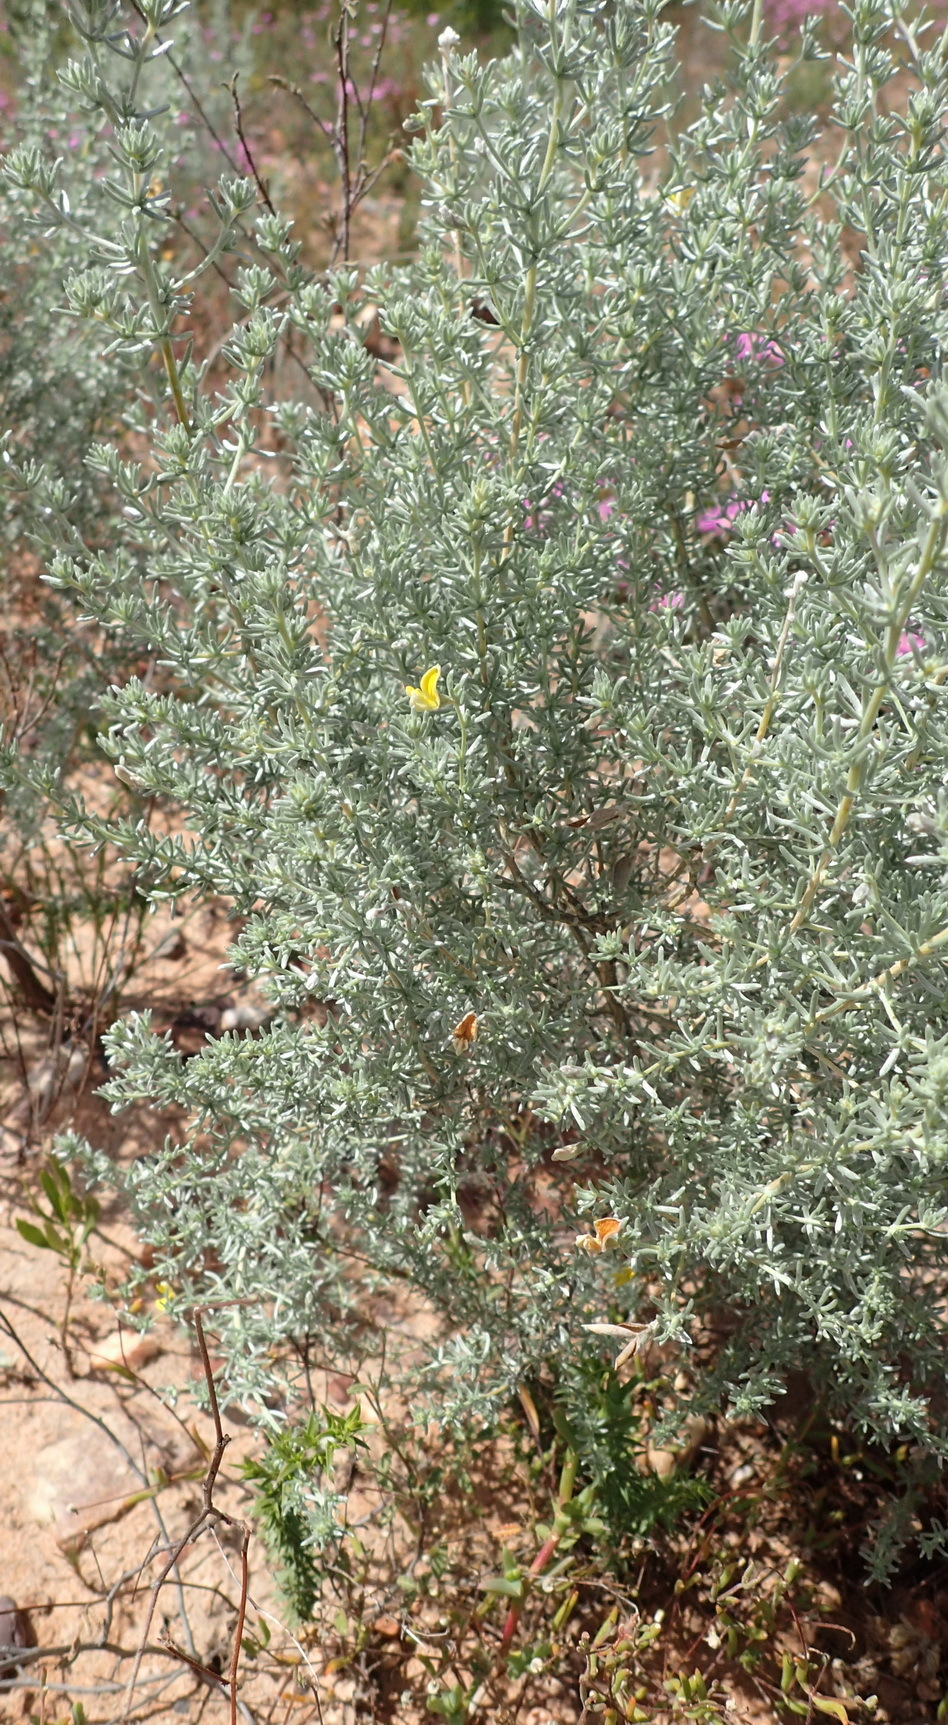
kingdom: Plantae
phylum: Tracheophyta
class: Magnoliopsida
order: Fabales
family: Fabaceae
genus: Aspalathus
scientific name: Aspalathus pedunculata
